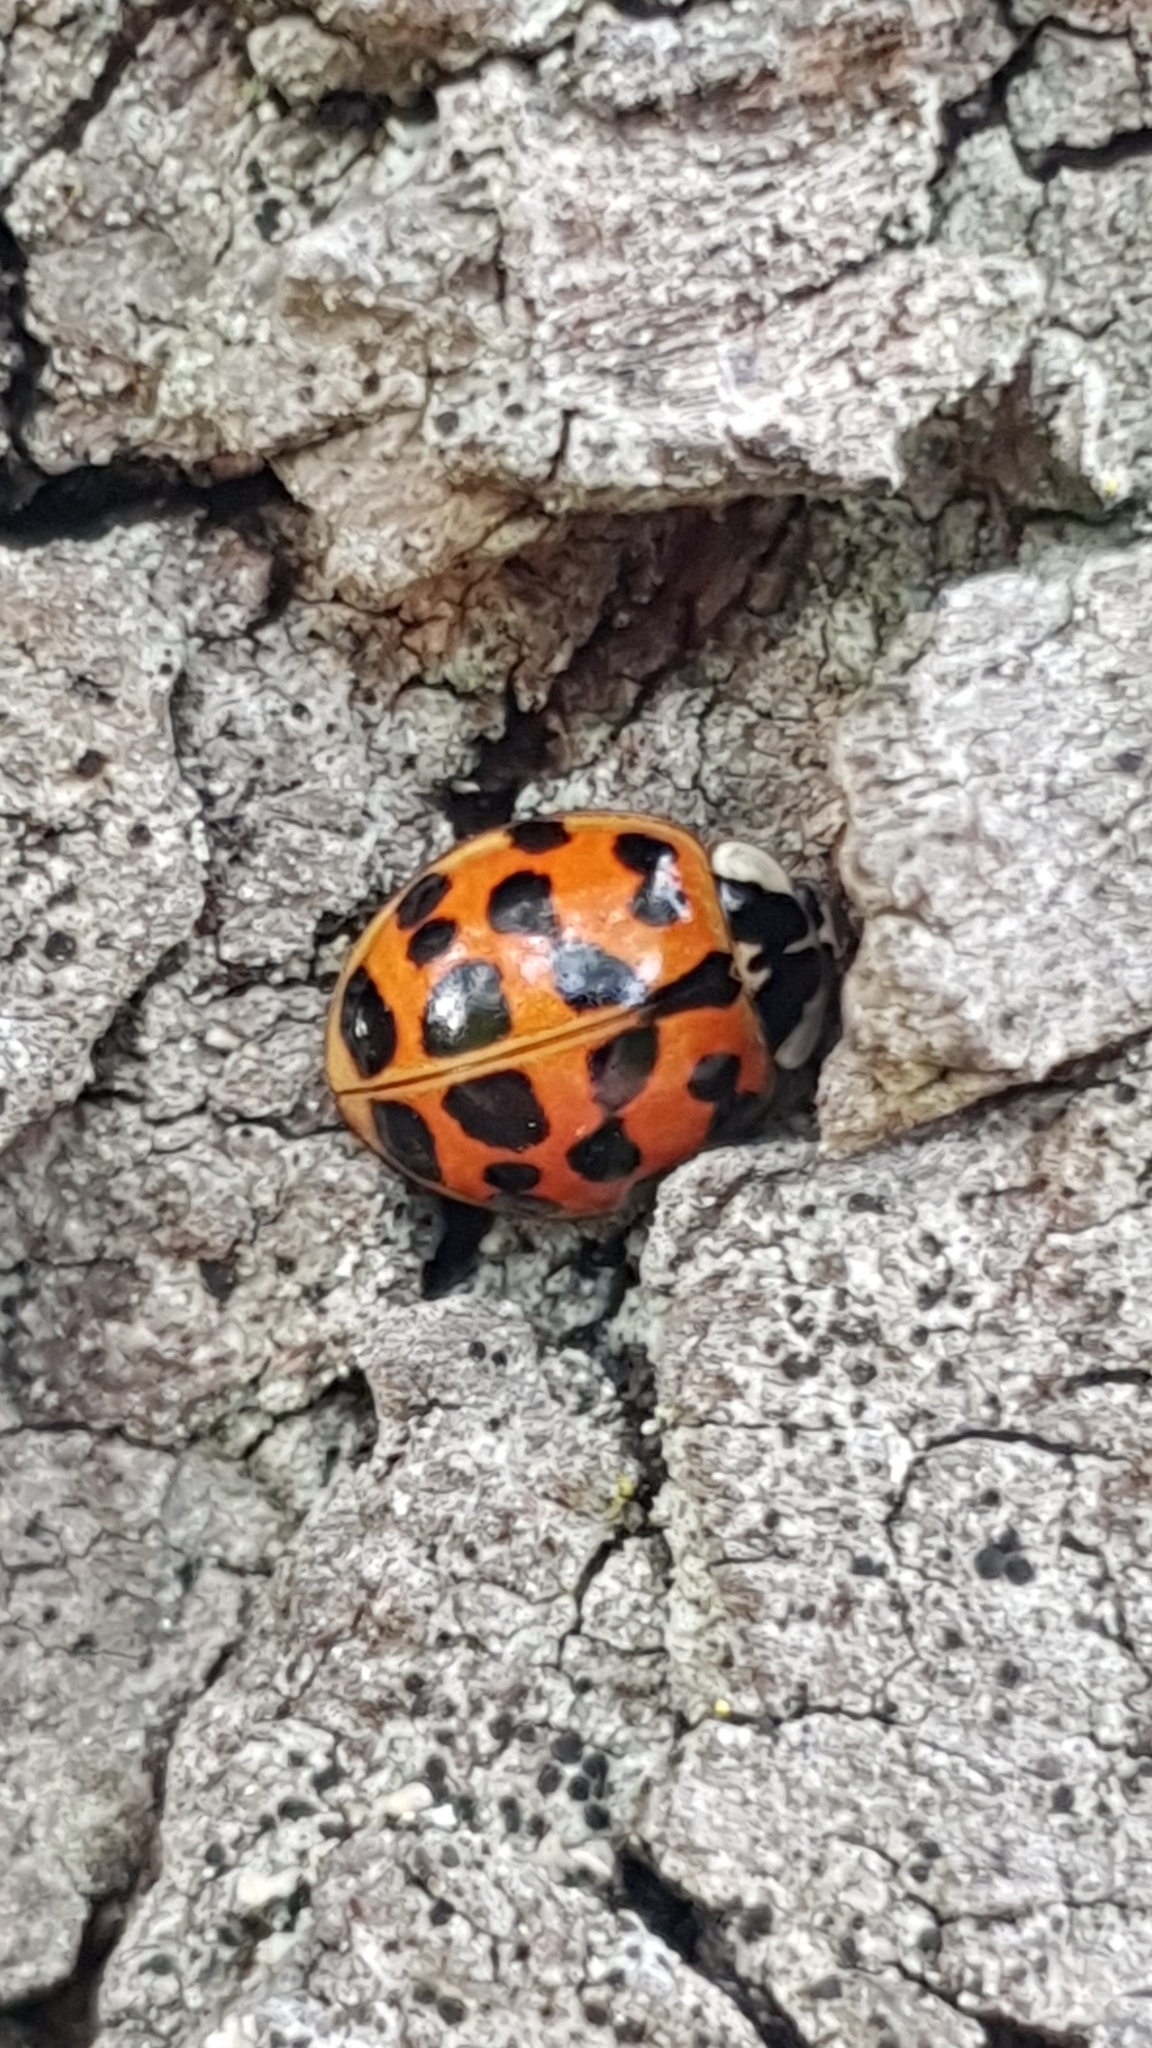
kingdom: Animalia
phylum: Arthropoda
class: Insecta
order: Coleoptera
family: Coccinellidae
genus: Harmonia
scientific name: Harmonia axyridis
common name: Harlequin ladybird
